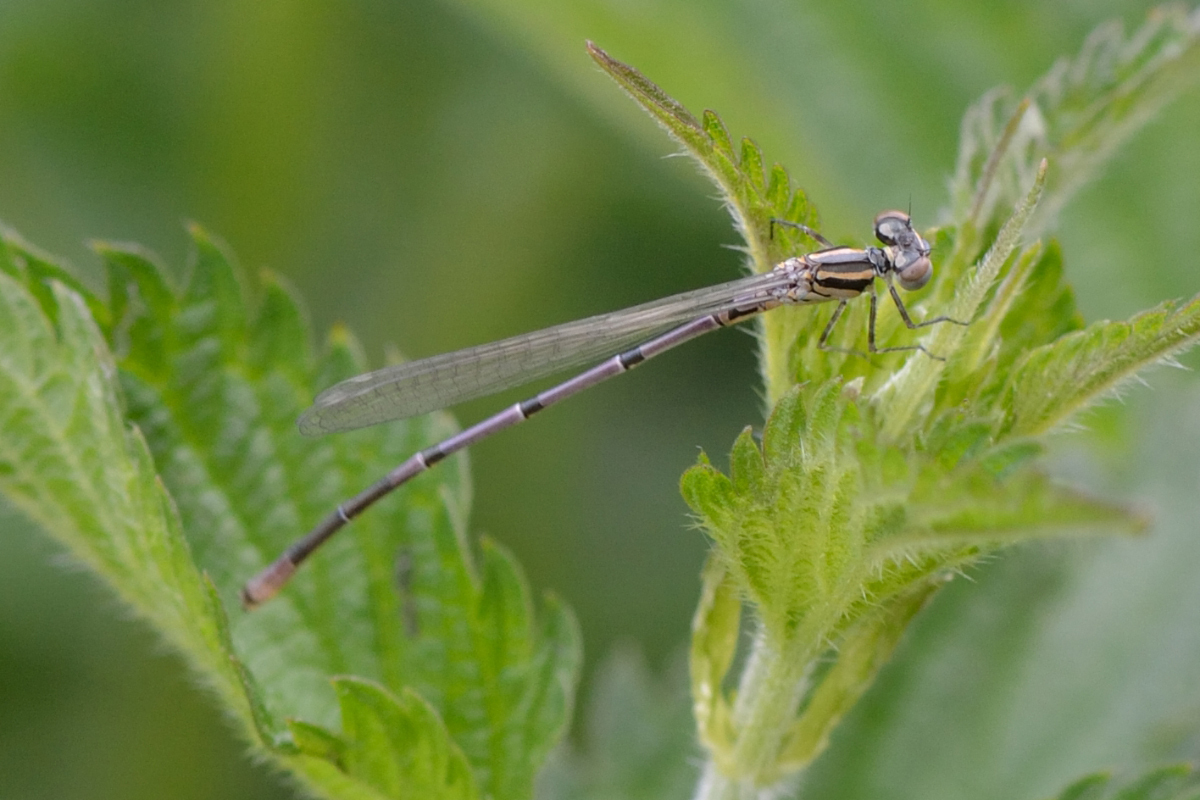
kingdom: Animalia
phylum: Arthropoda
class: Insecta
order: Odonata
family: Coenagrionidae
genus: Coenagrion
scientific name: Coenagrion puella
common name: Azure damselfly
